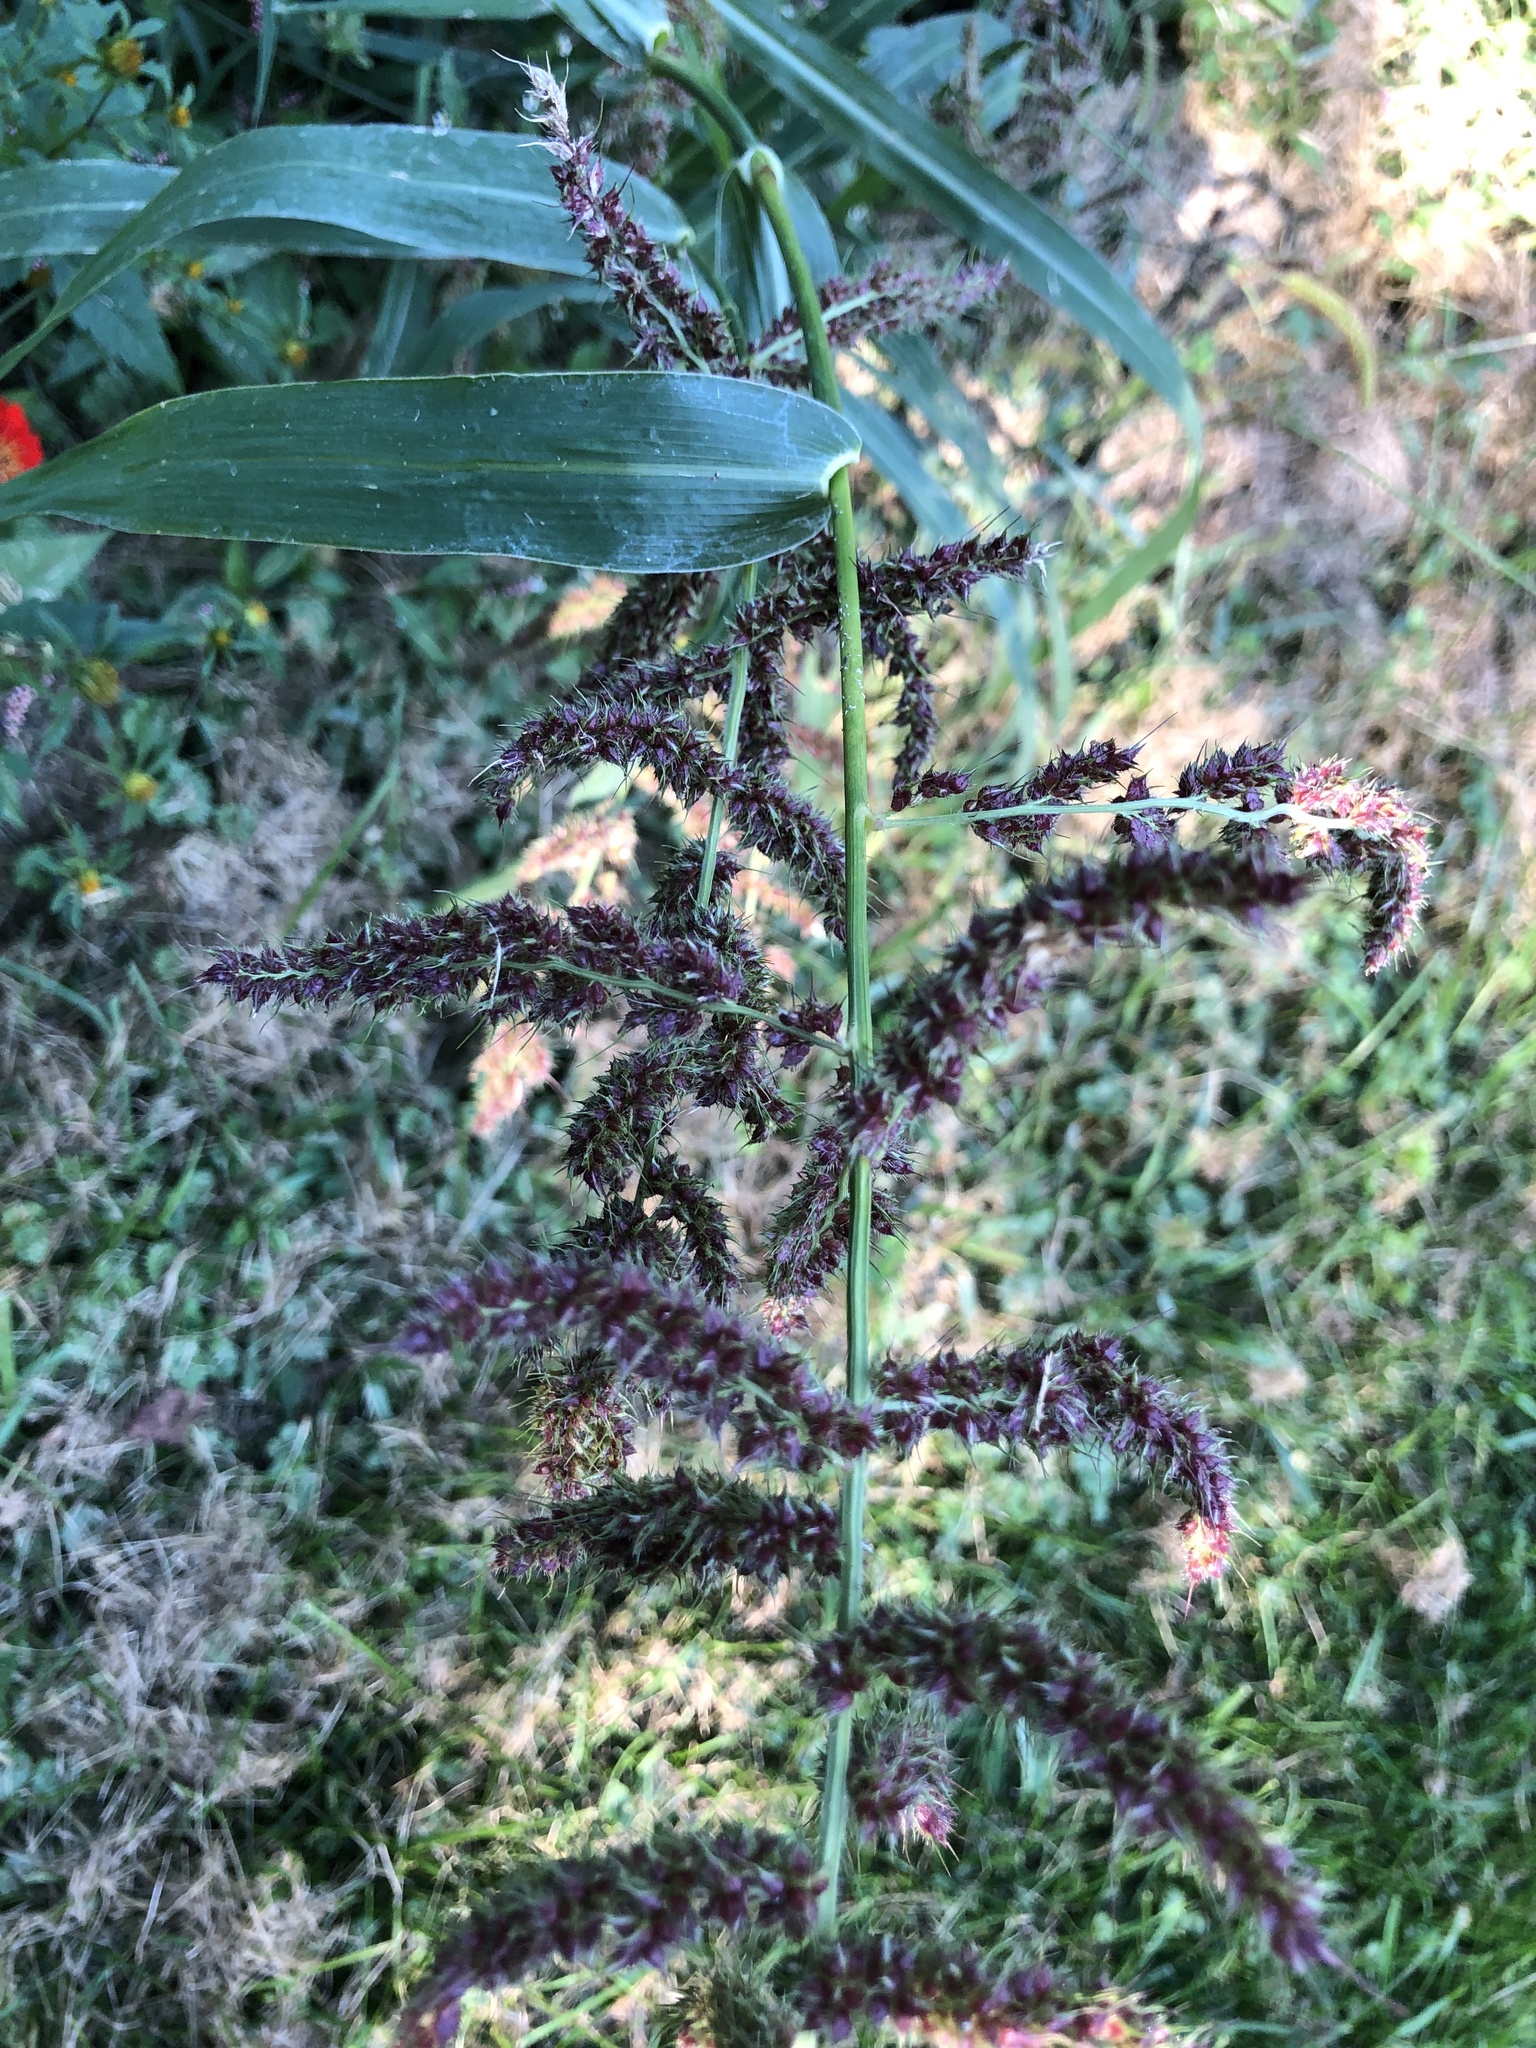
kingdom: Plantae
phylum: Tracheophyta
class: Liliopsida
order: Poales
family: Poaceae
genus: Echinochloa
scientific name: Echinochloa crus-galli
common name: Cockspur
